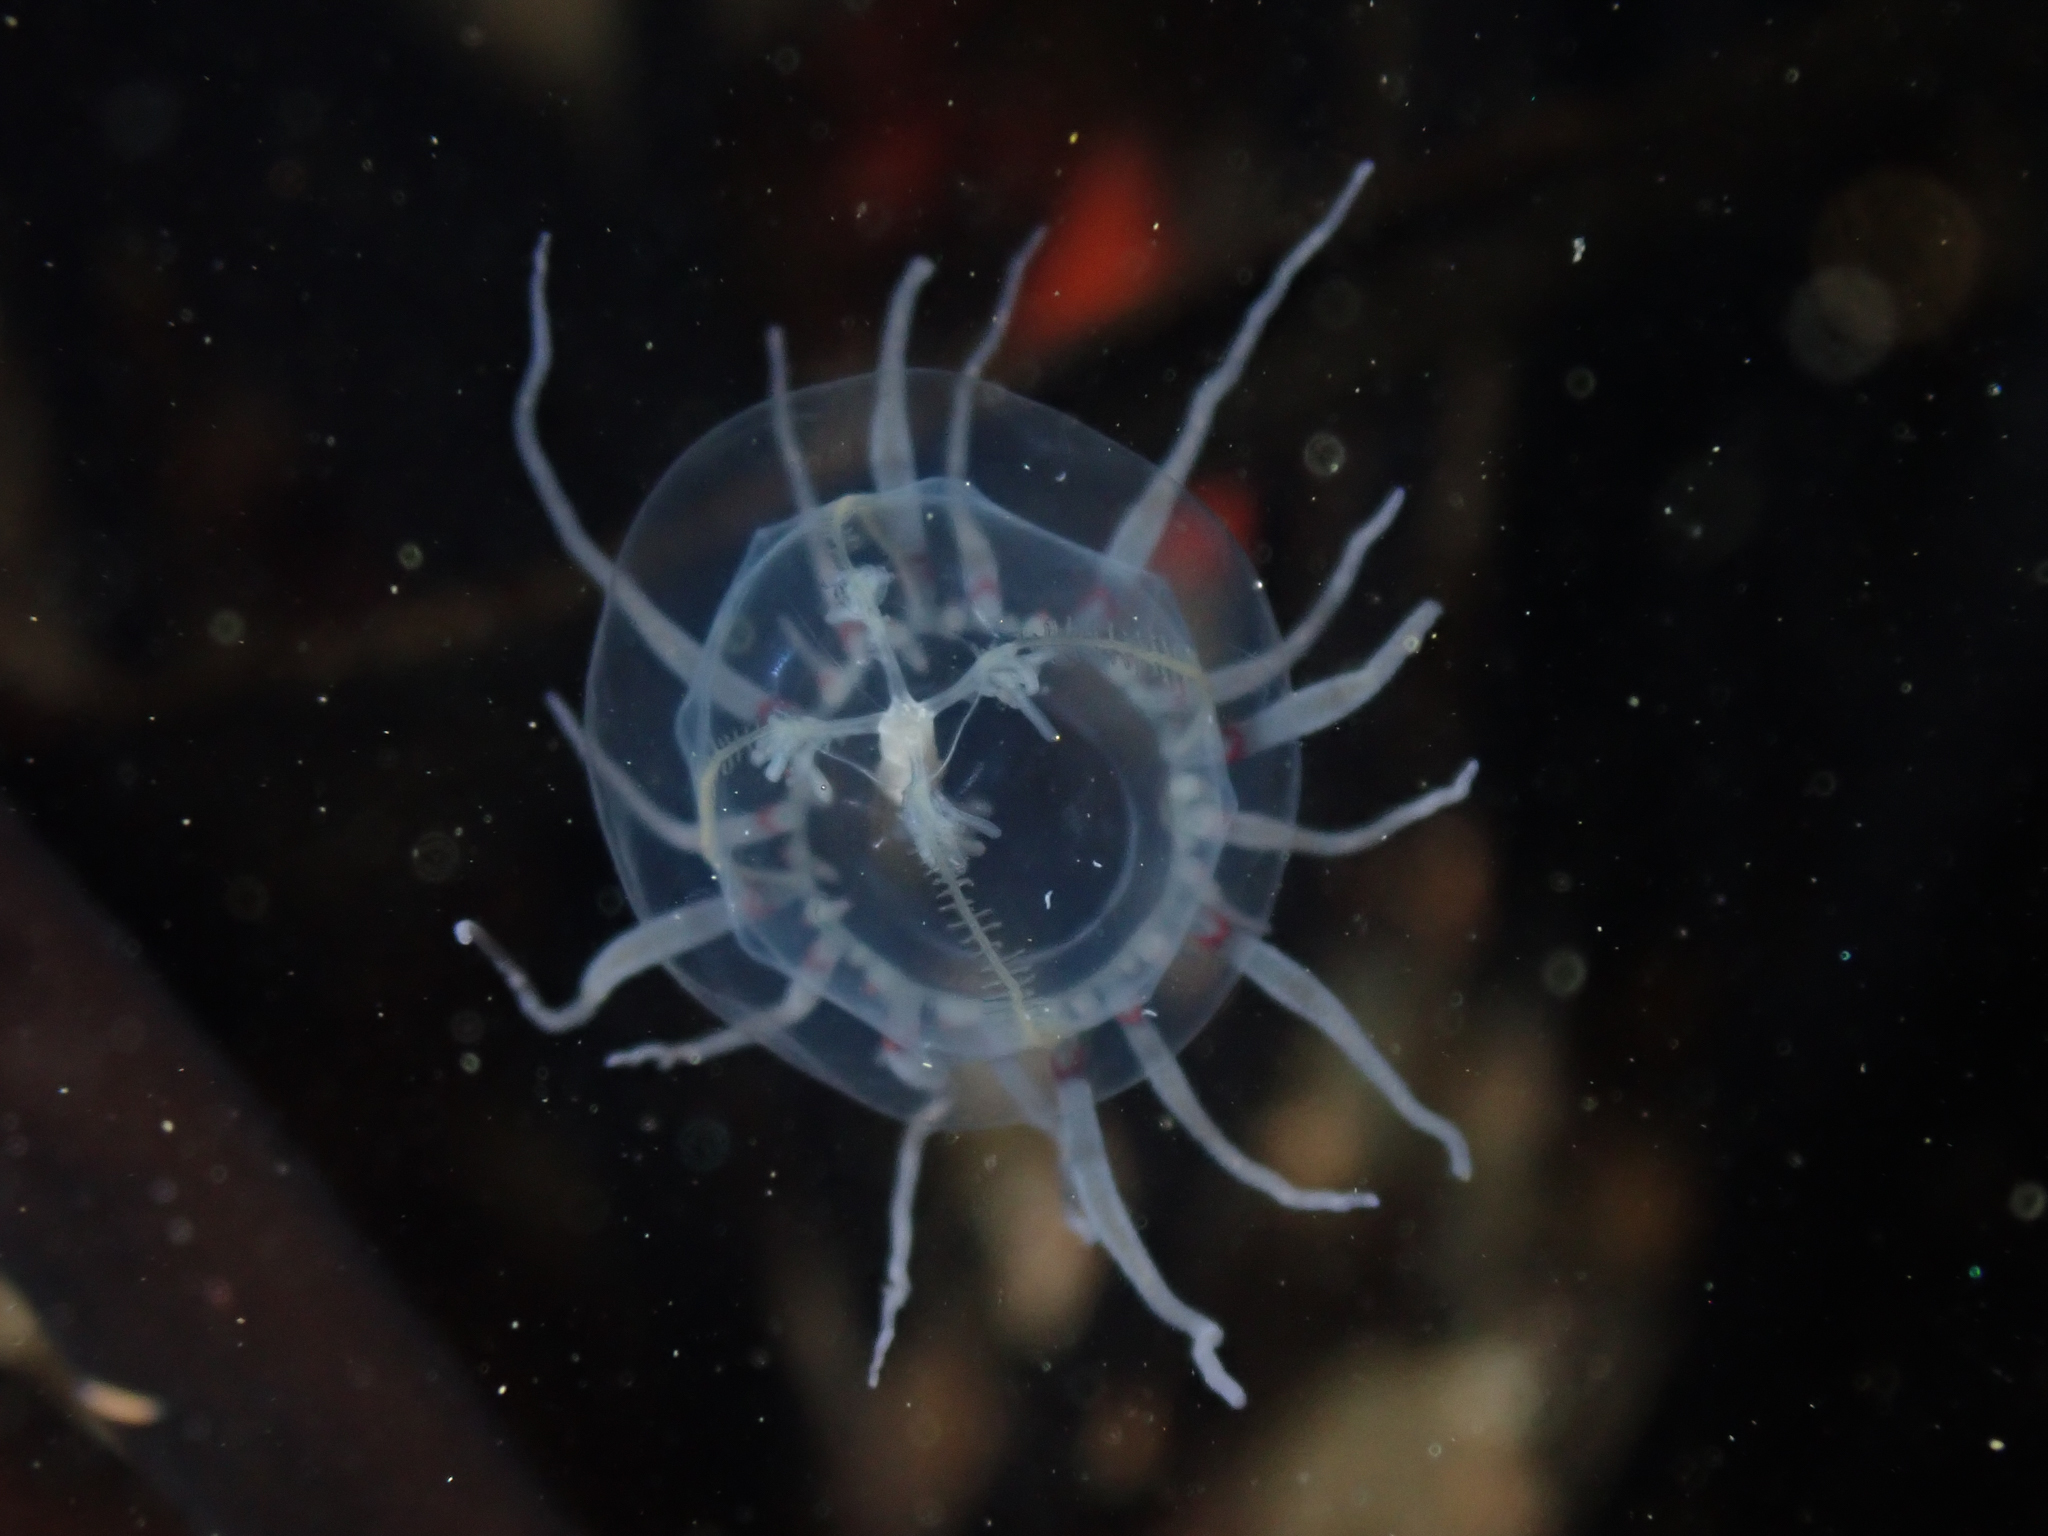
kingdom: Animalia
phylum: Cnidaria
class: Hydrozoa
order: Anthoathecata
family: Corynidae
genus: Polyorchis
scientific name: Polyorchis penicillatus
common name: Penicillate jellyfish
